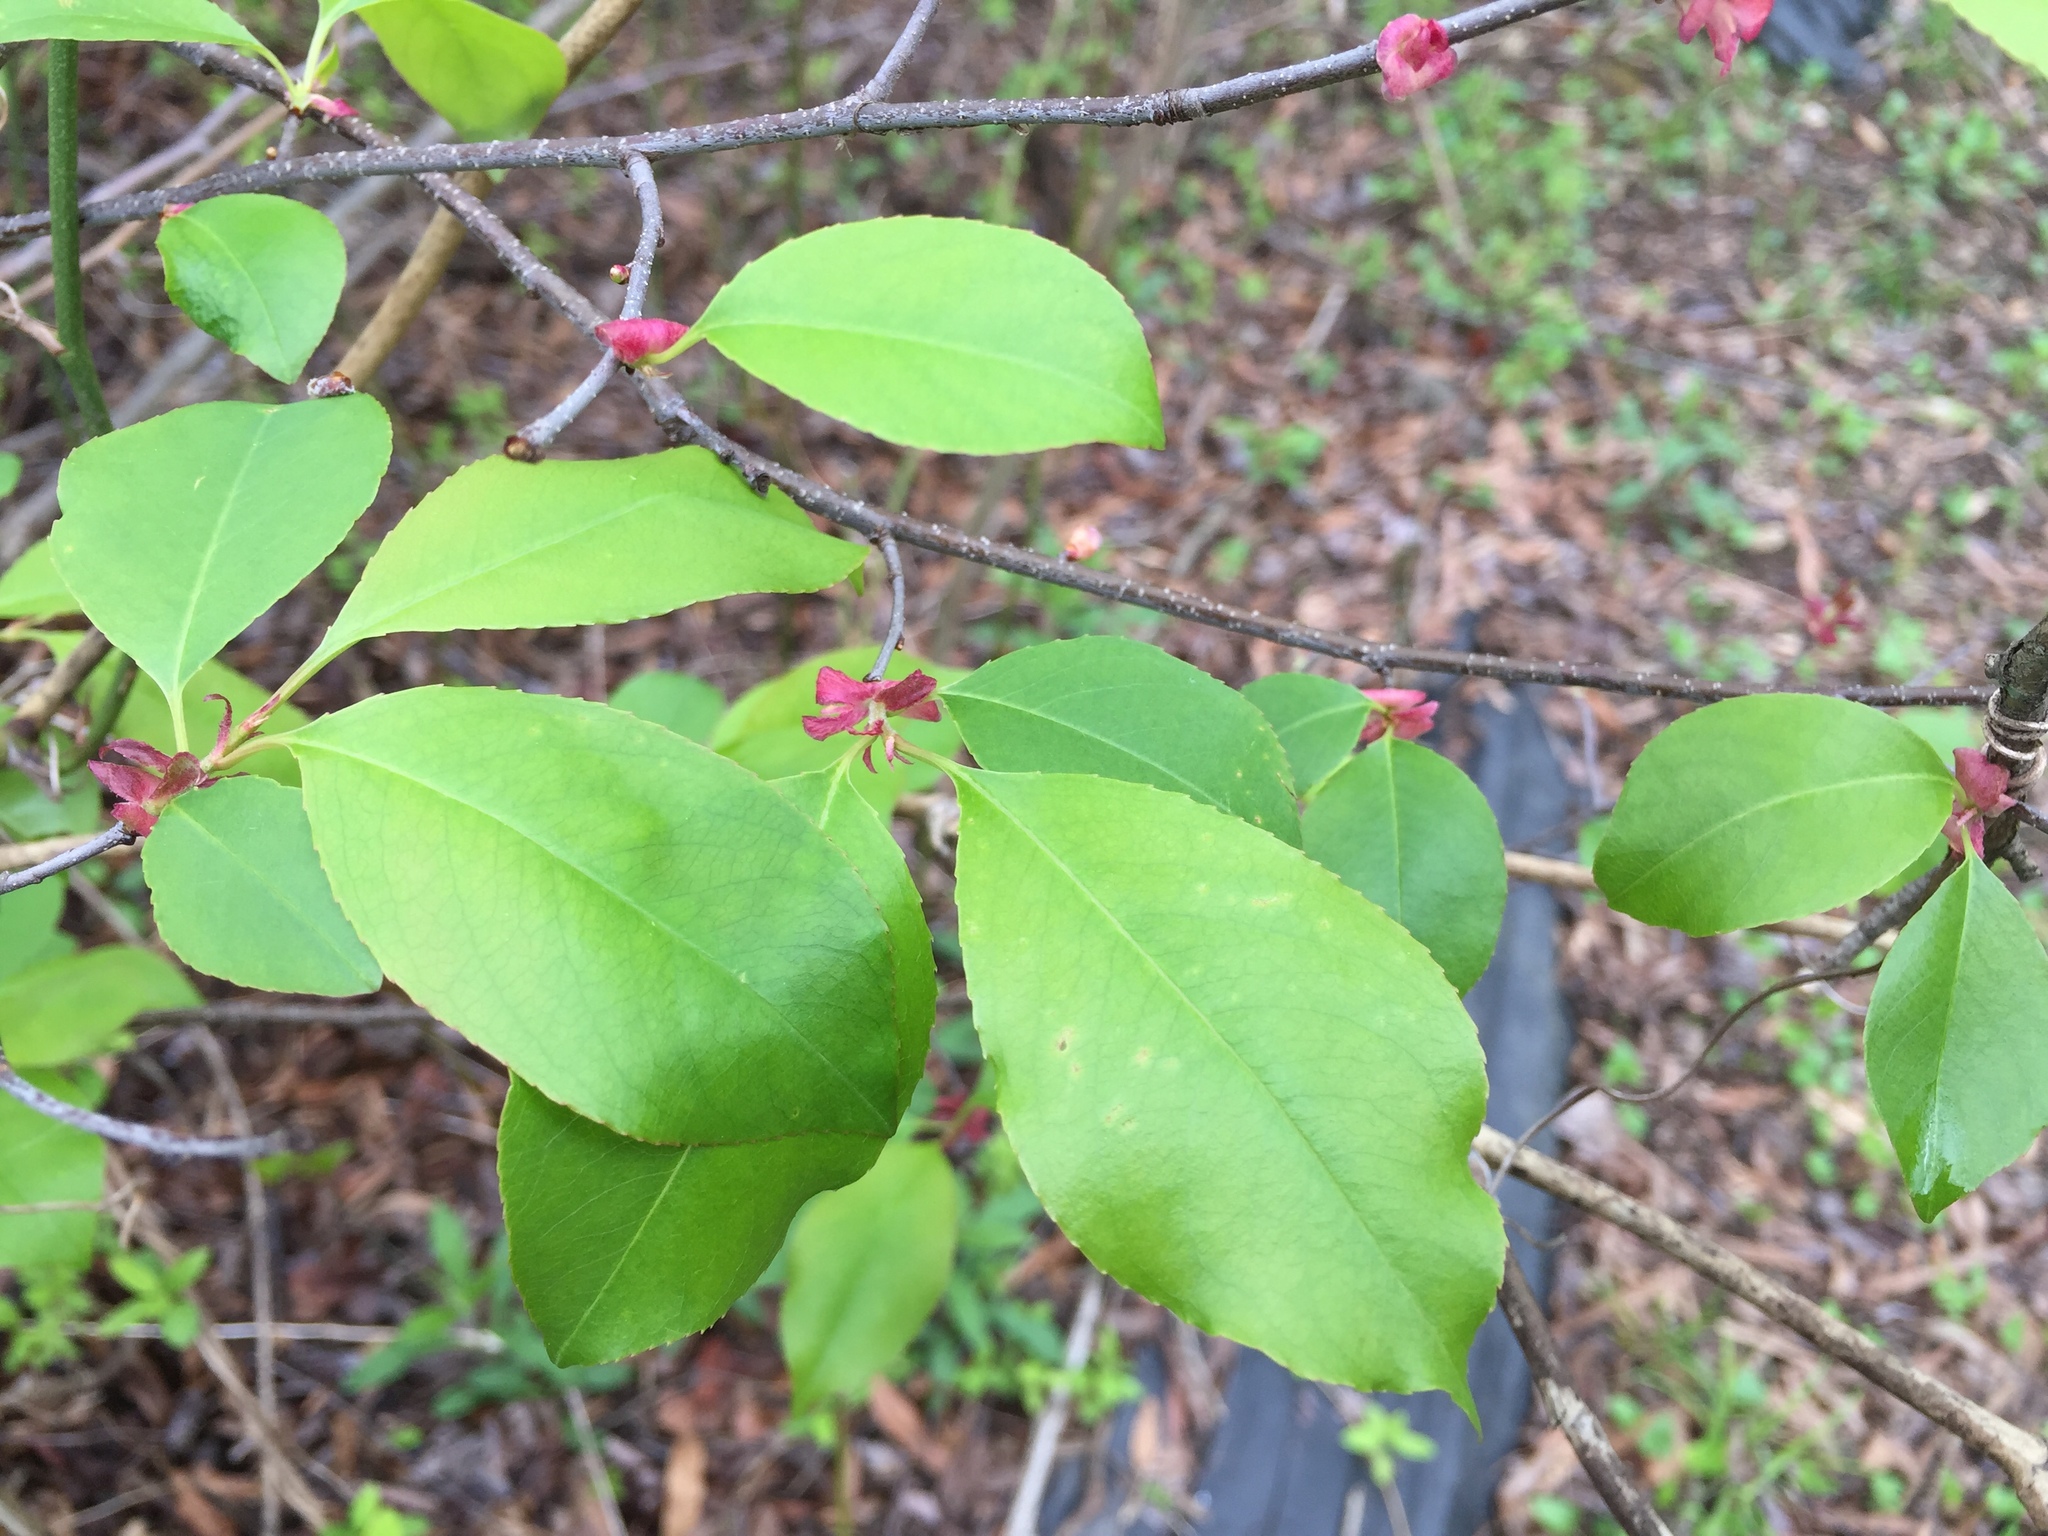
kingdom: Plantae
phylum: Tracheophyta
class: Magnoliopsida
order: Rosales
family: Rosaceae
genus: Prunus
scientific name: Prunus serotina
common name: Black cherry
